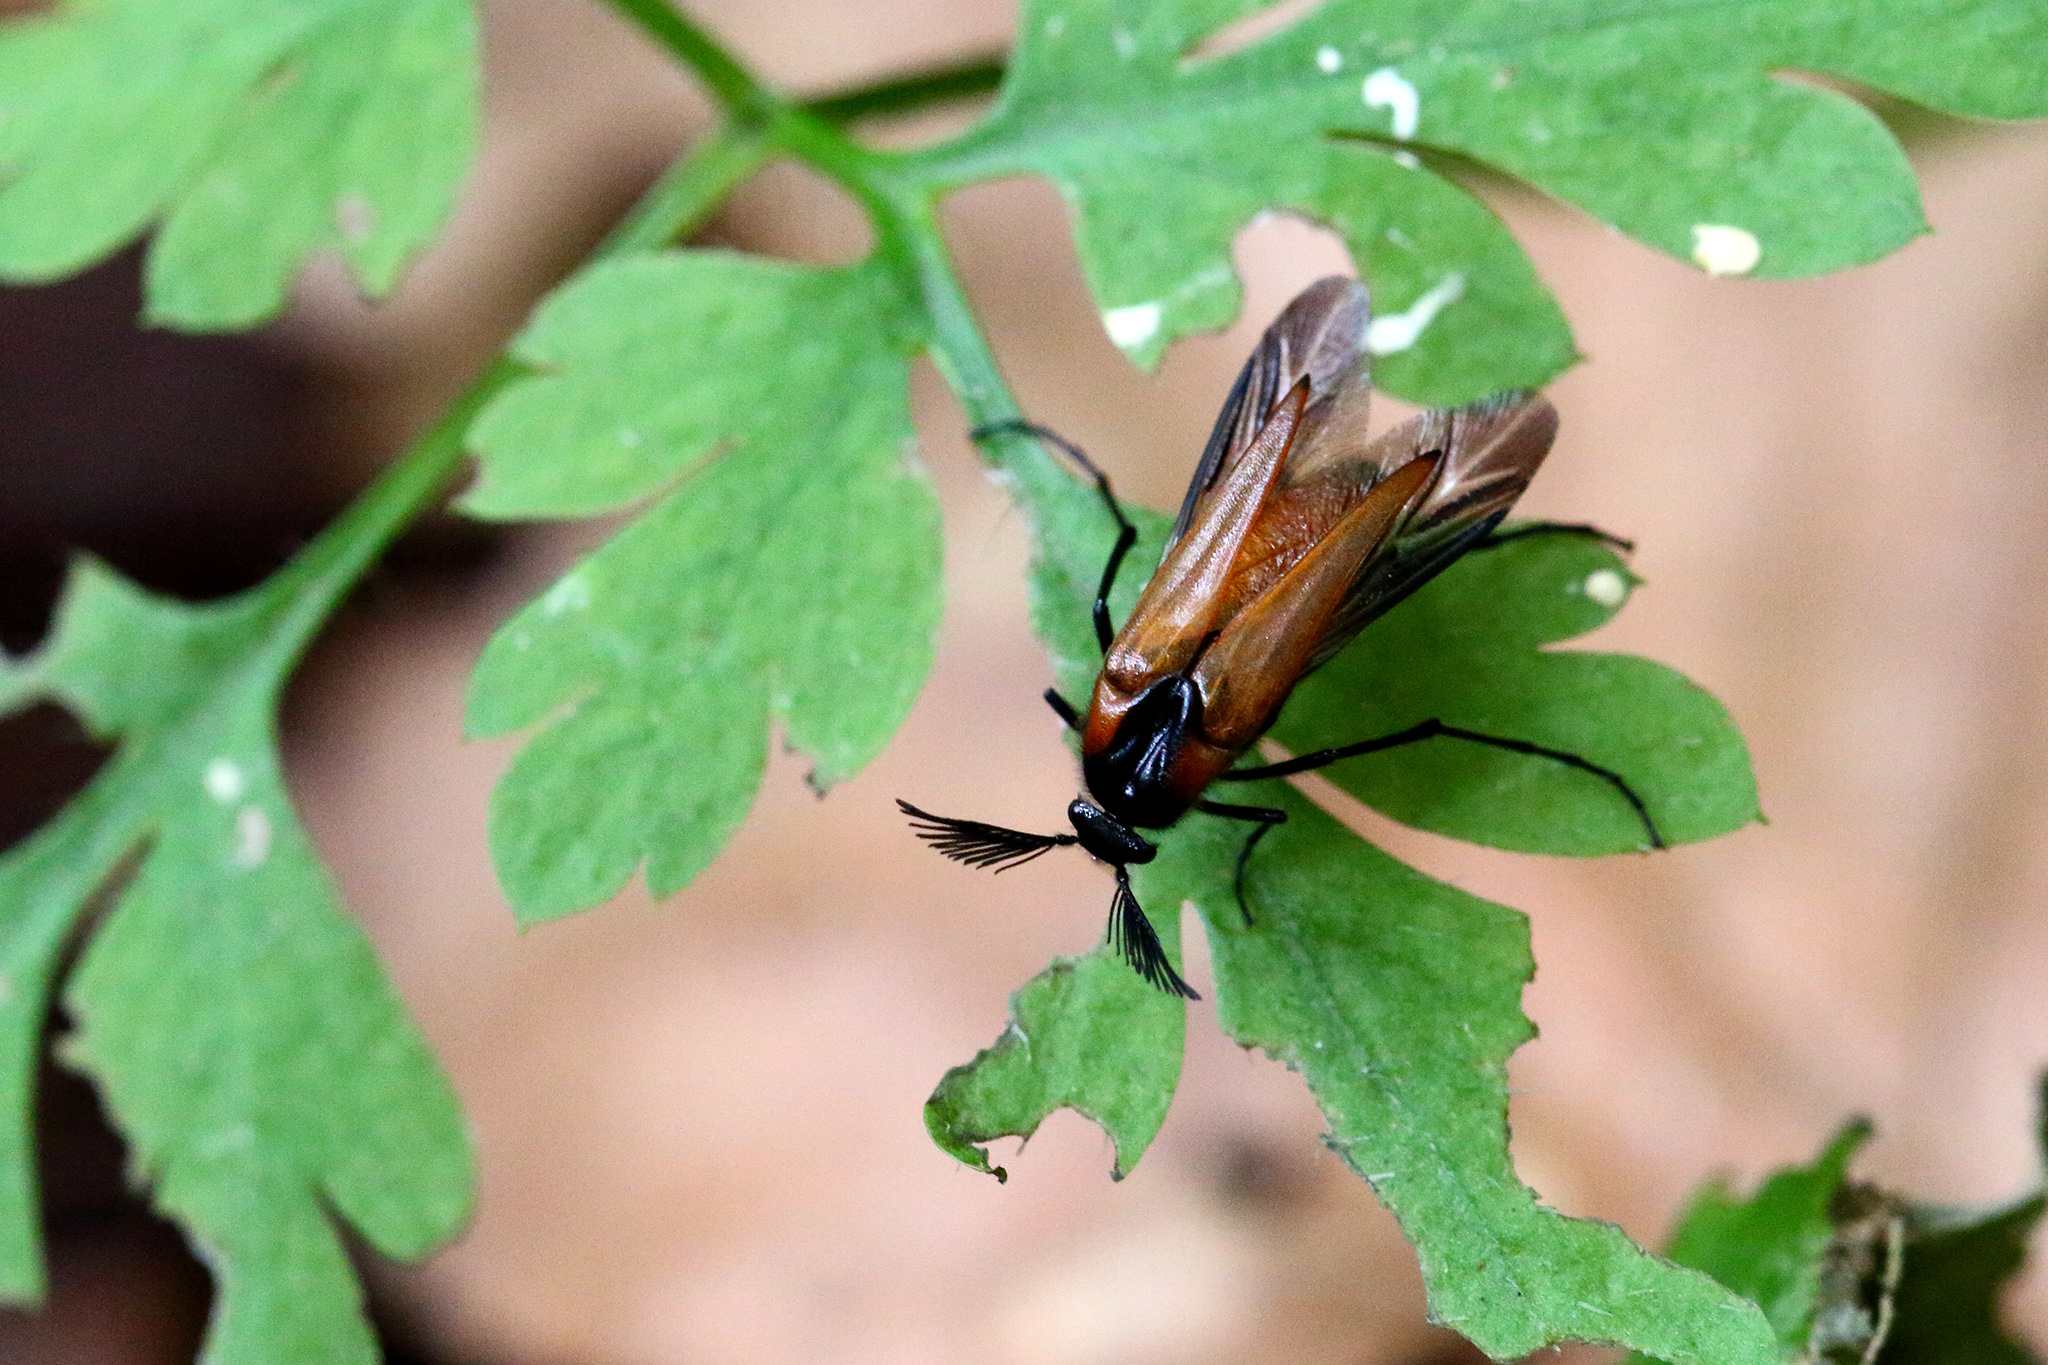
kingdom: Animalia
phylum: Arthropoda
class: Insecta
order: Coleoptera
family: Ripiphoridae
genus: Metoecus
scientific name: Metoecus paradoxus
